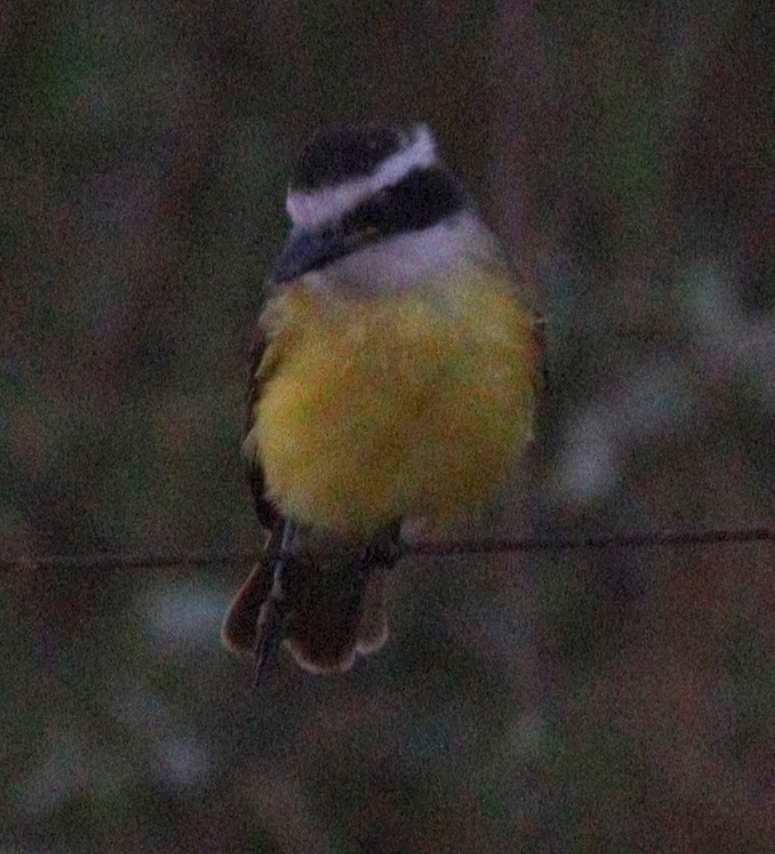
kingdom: Animalia
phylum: Chordata
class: Aves
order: Passeriformes
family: Tyrannidae
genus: Pitangus
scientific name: Pitangus sulphuratus
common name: Great kiskadee
